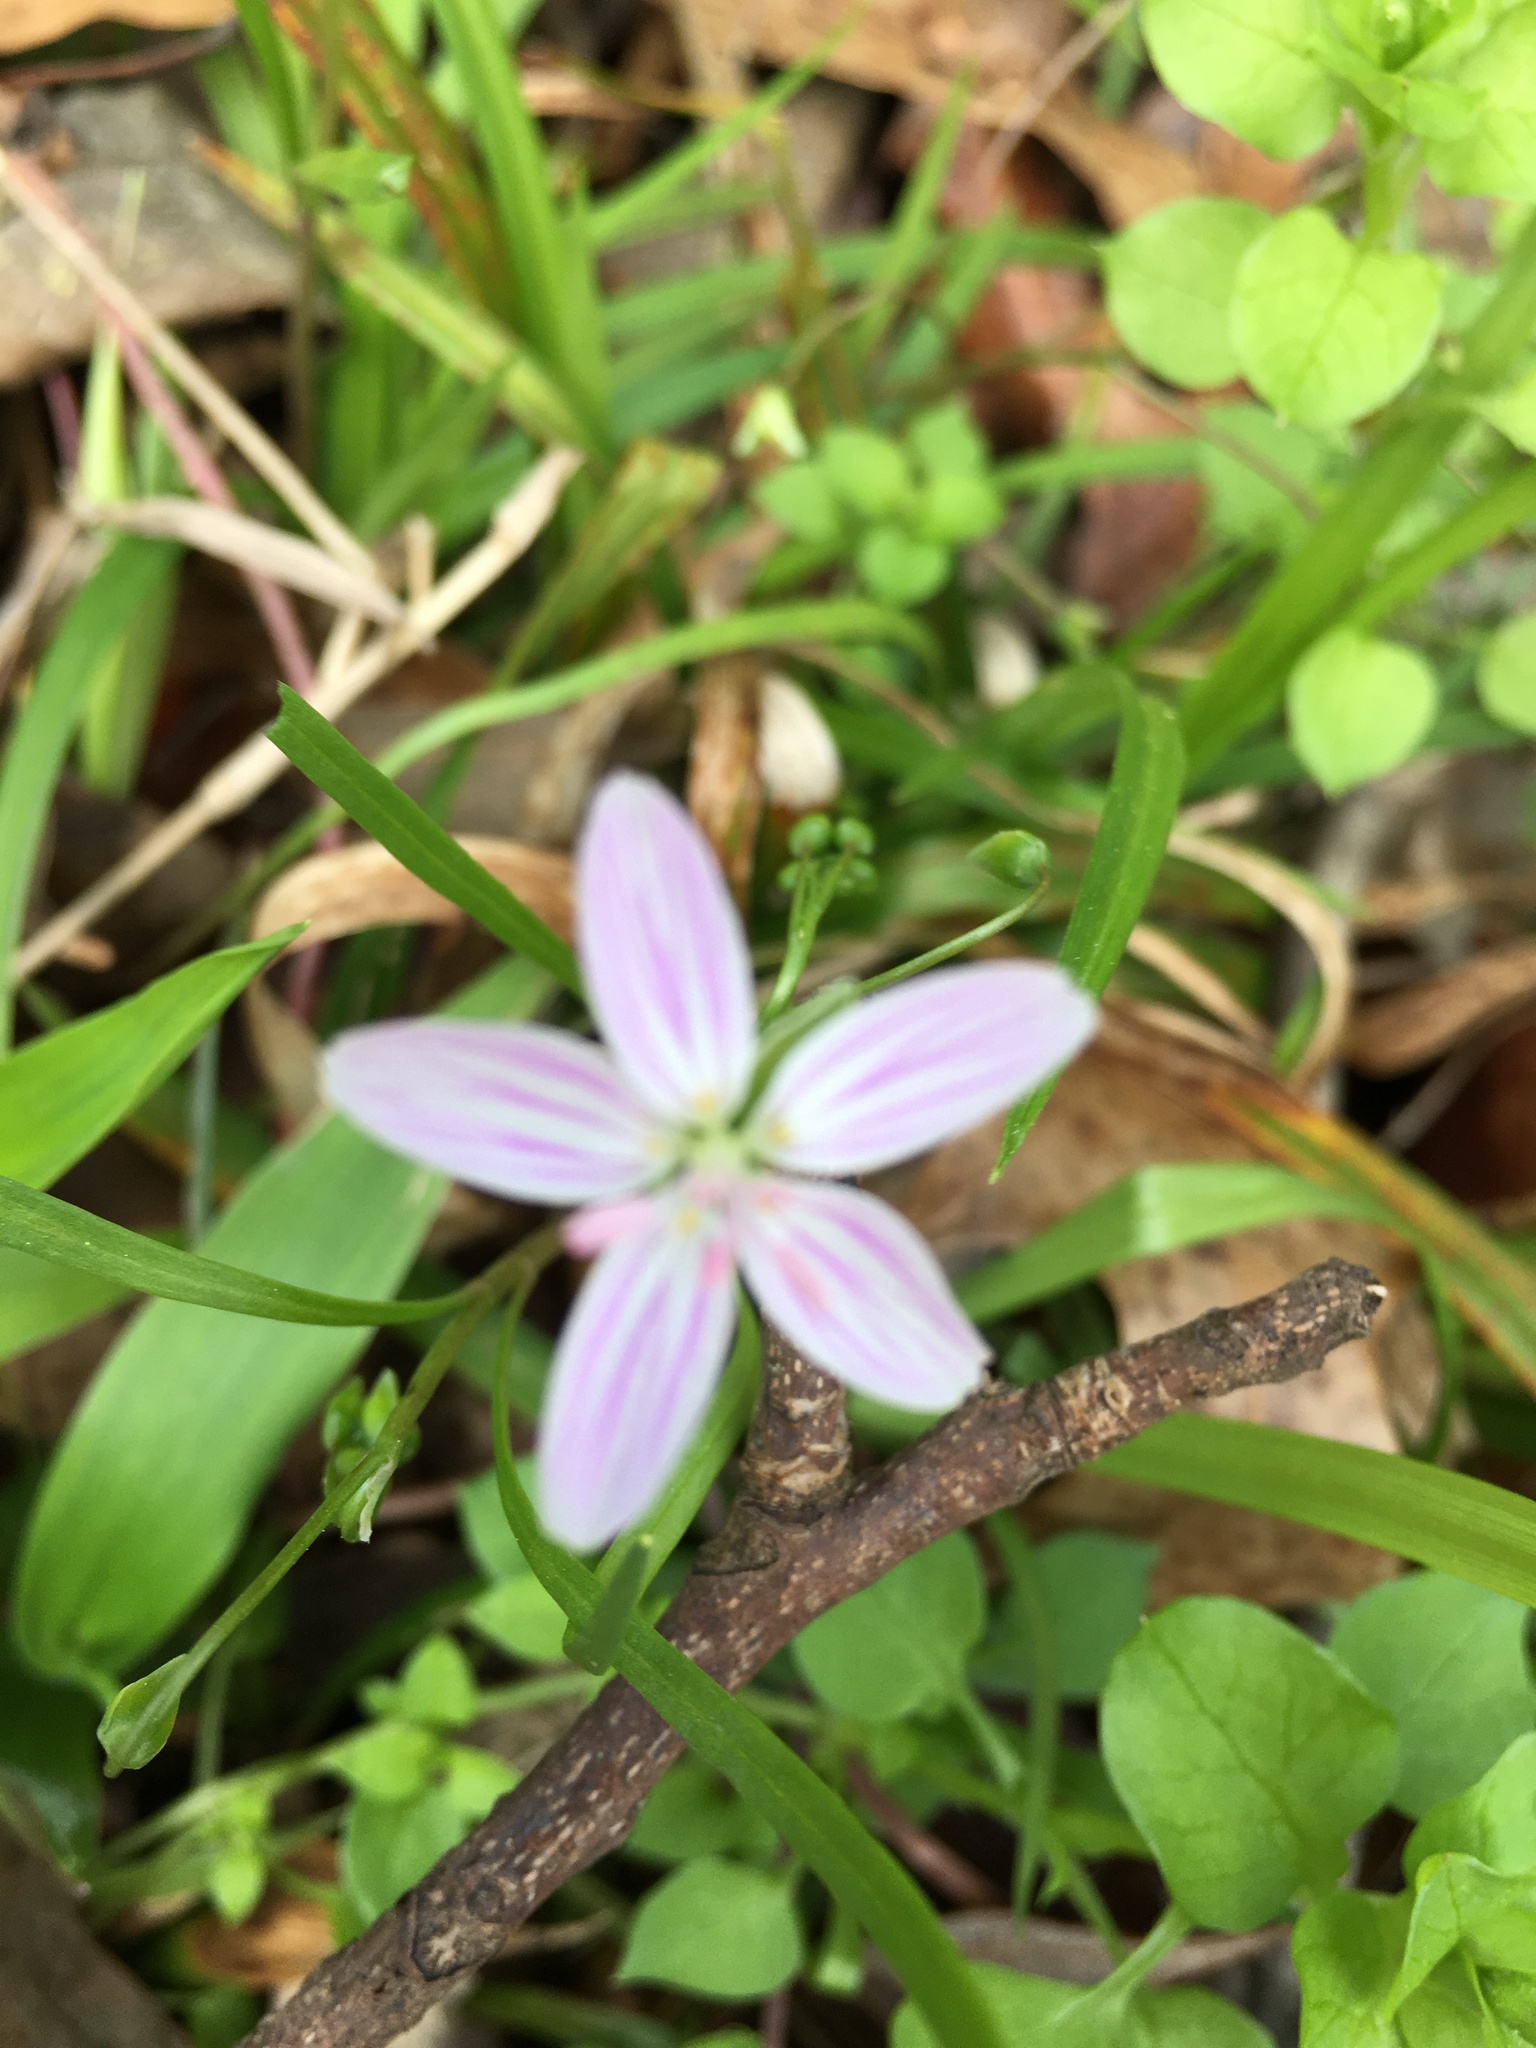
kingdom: Plantae
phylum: Tracheophyta
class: Magnoliopsida
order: Caryophyllales
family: Montiaceae
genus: Claytonia
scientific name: Claytonia virginica
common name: Virginia springbeauty
